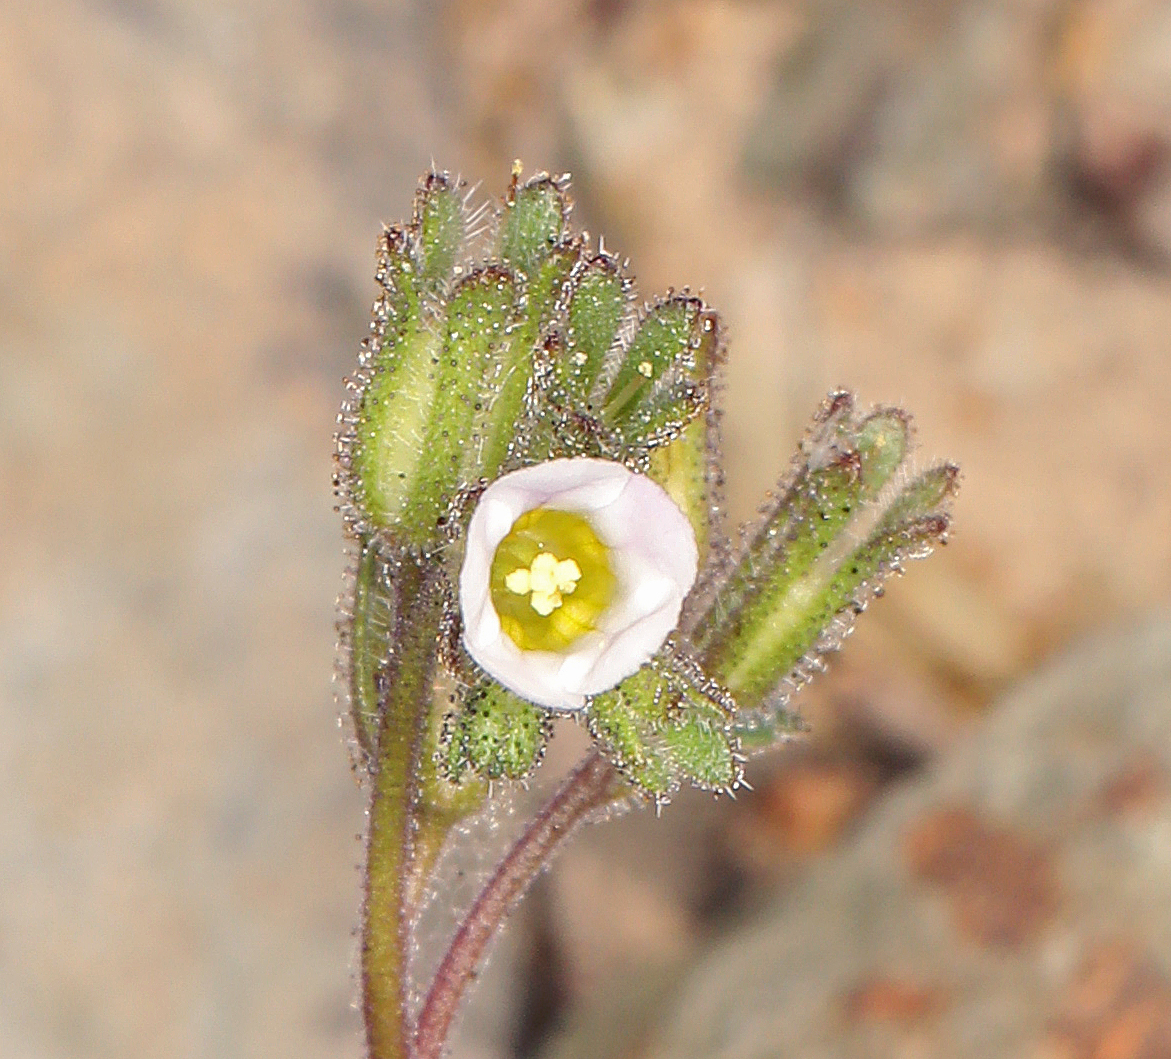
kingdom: Plantae
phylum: Tracheophyta
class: Magnoliopsida
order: Boraginales
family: Hydrophyllaceae
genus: Phacelia
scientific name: Phacelia affinis
